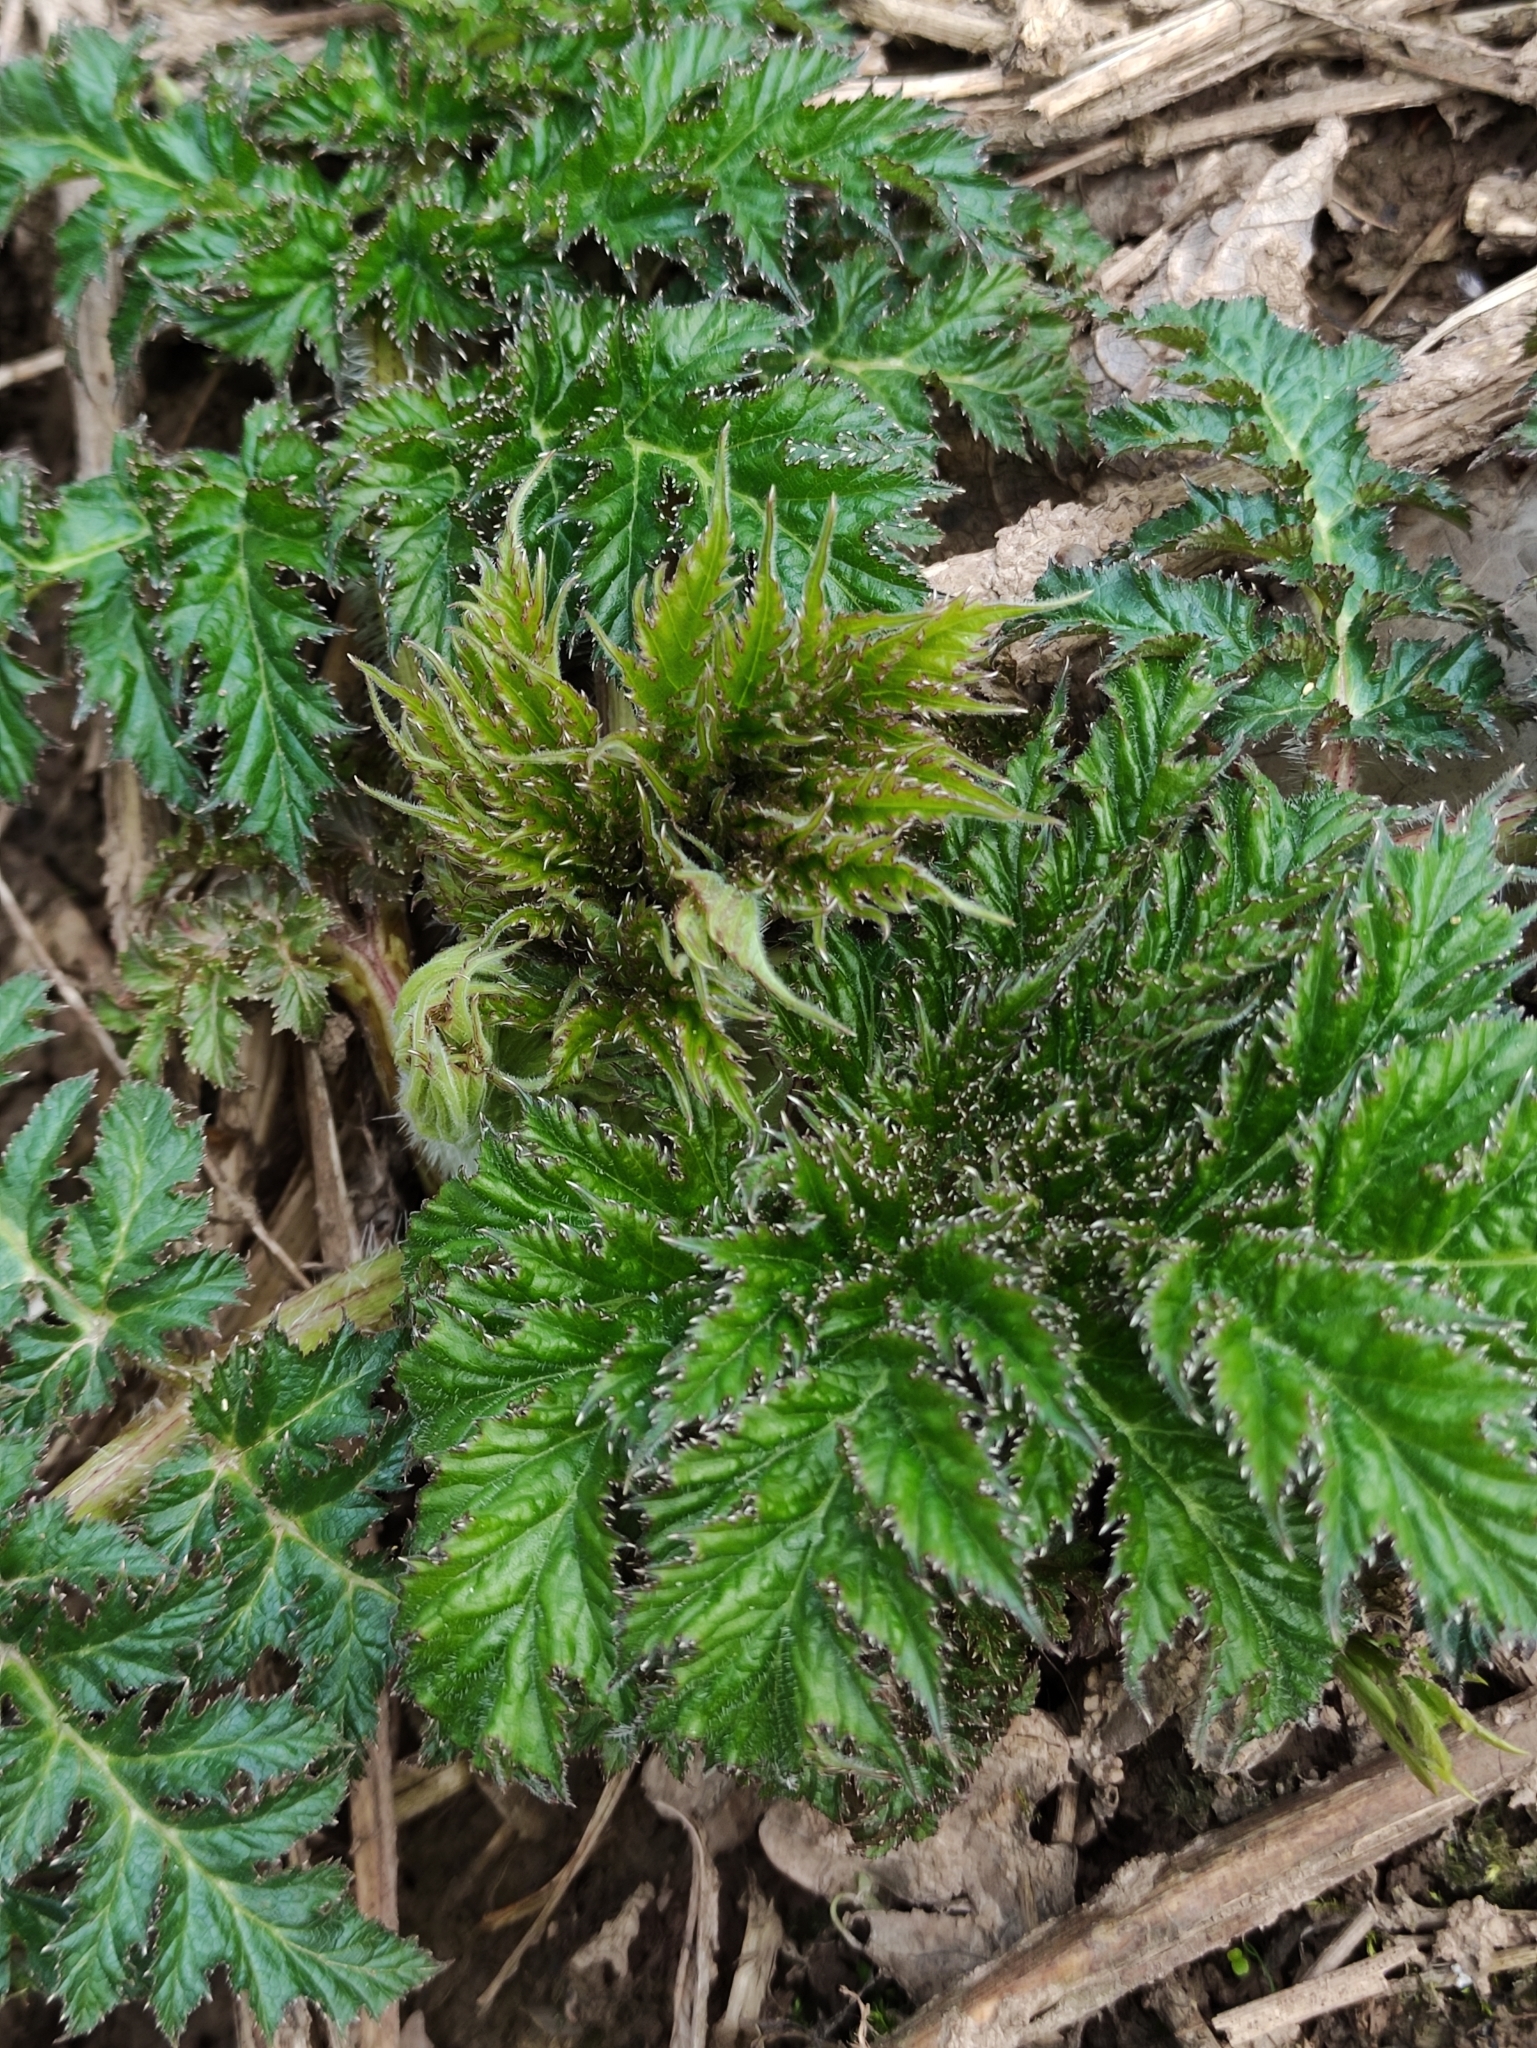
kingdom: Plantae
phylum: Tracheophyta
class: Magnoliopsida
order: Apiales
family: Apiaceae
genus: Heracleum
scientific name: Heracleum mantegazzianum
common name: Giant hogweed
